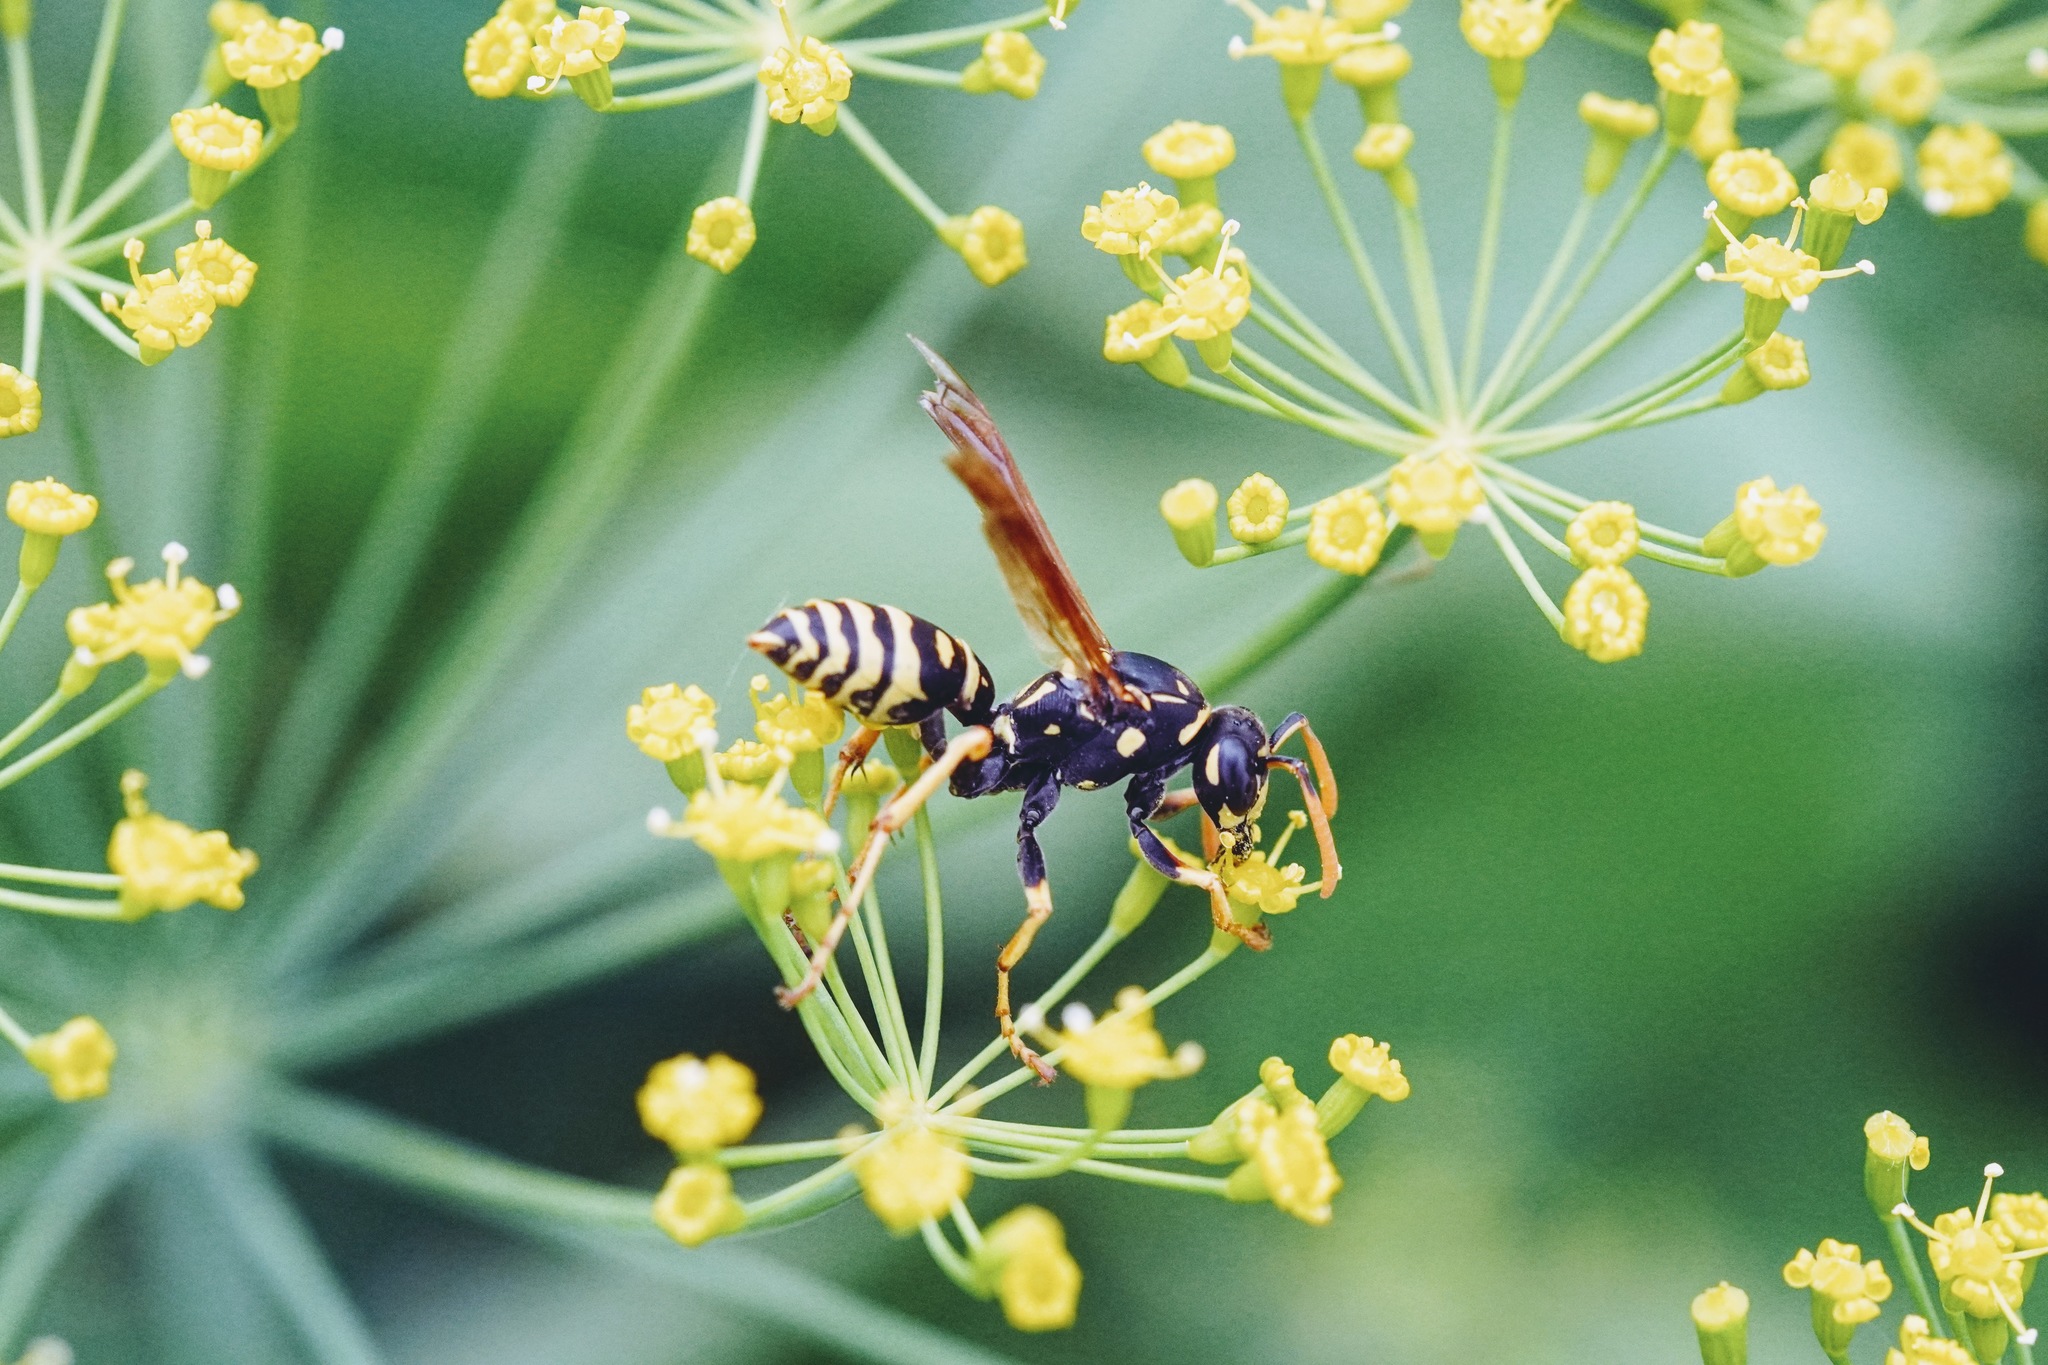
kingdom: Animalia
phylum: Arthropoda
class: Insecta
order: Hymenoptera
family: Eumenidae
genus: Polistes
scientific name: Polistes dominula
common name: Paper wasp
